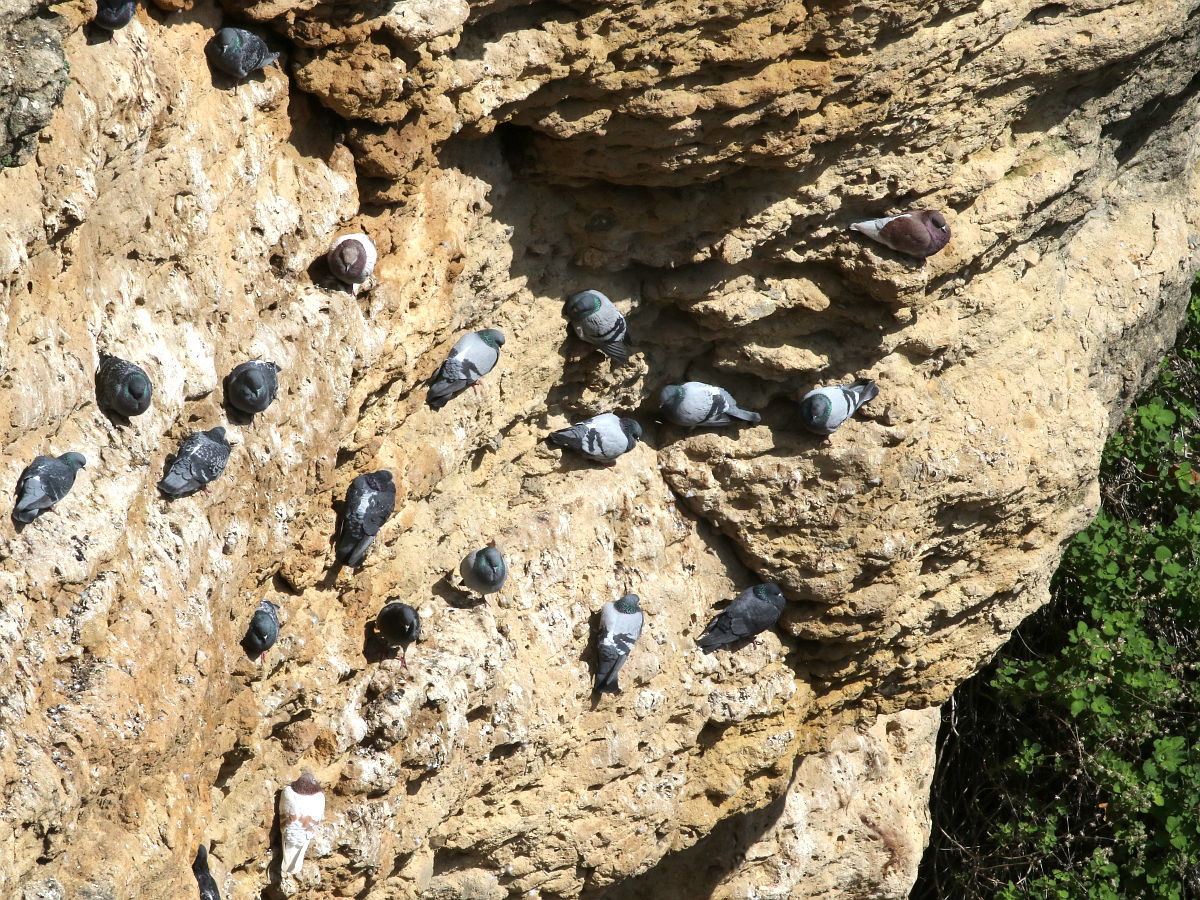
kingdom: Animalia
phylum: Chordata
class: Aves
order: Columbiformes
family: Columbidae
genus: Columba
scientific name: Columba livia
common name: Rock pigeon
